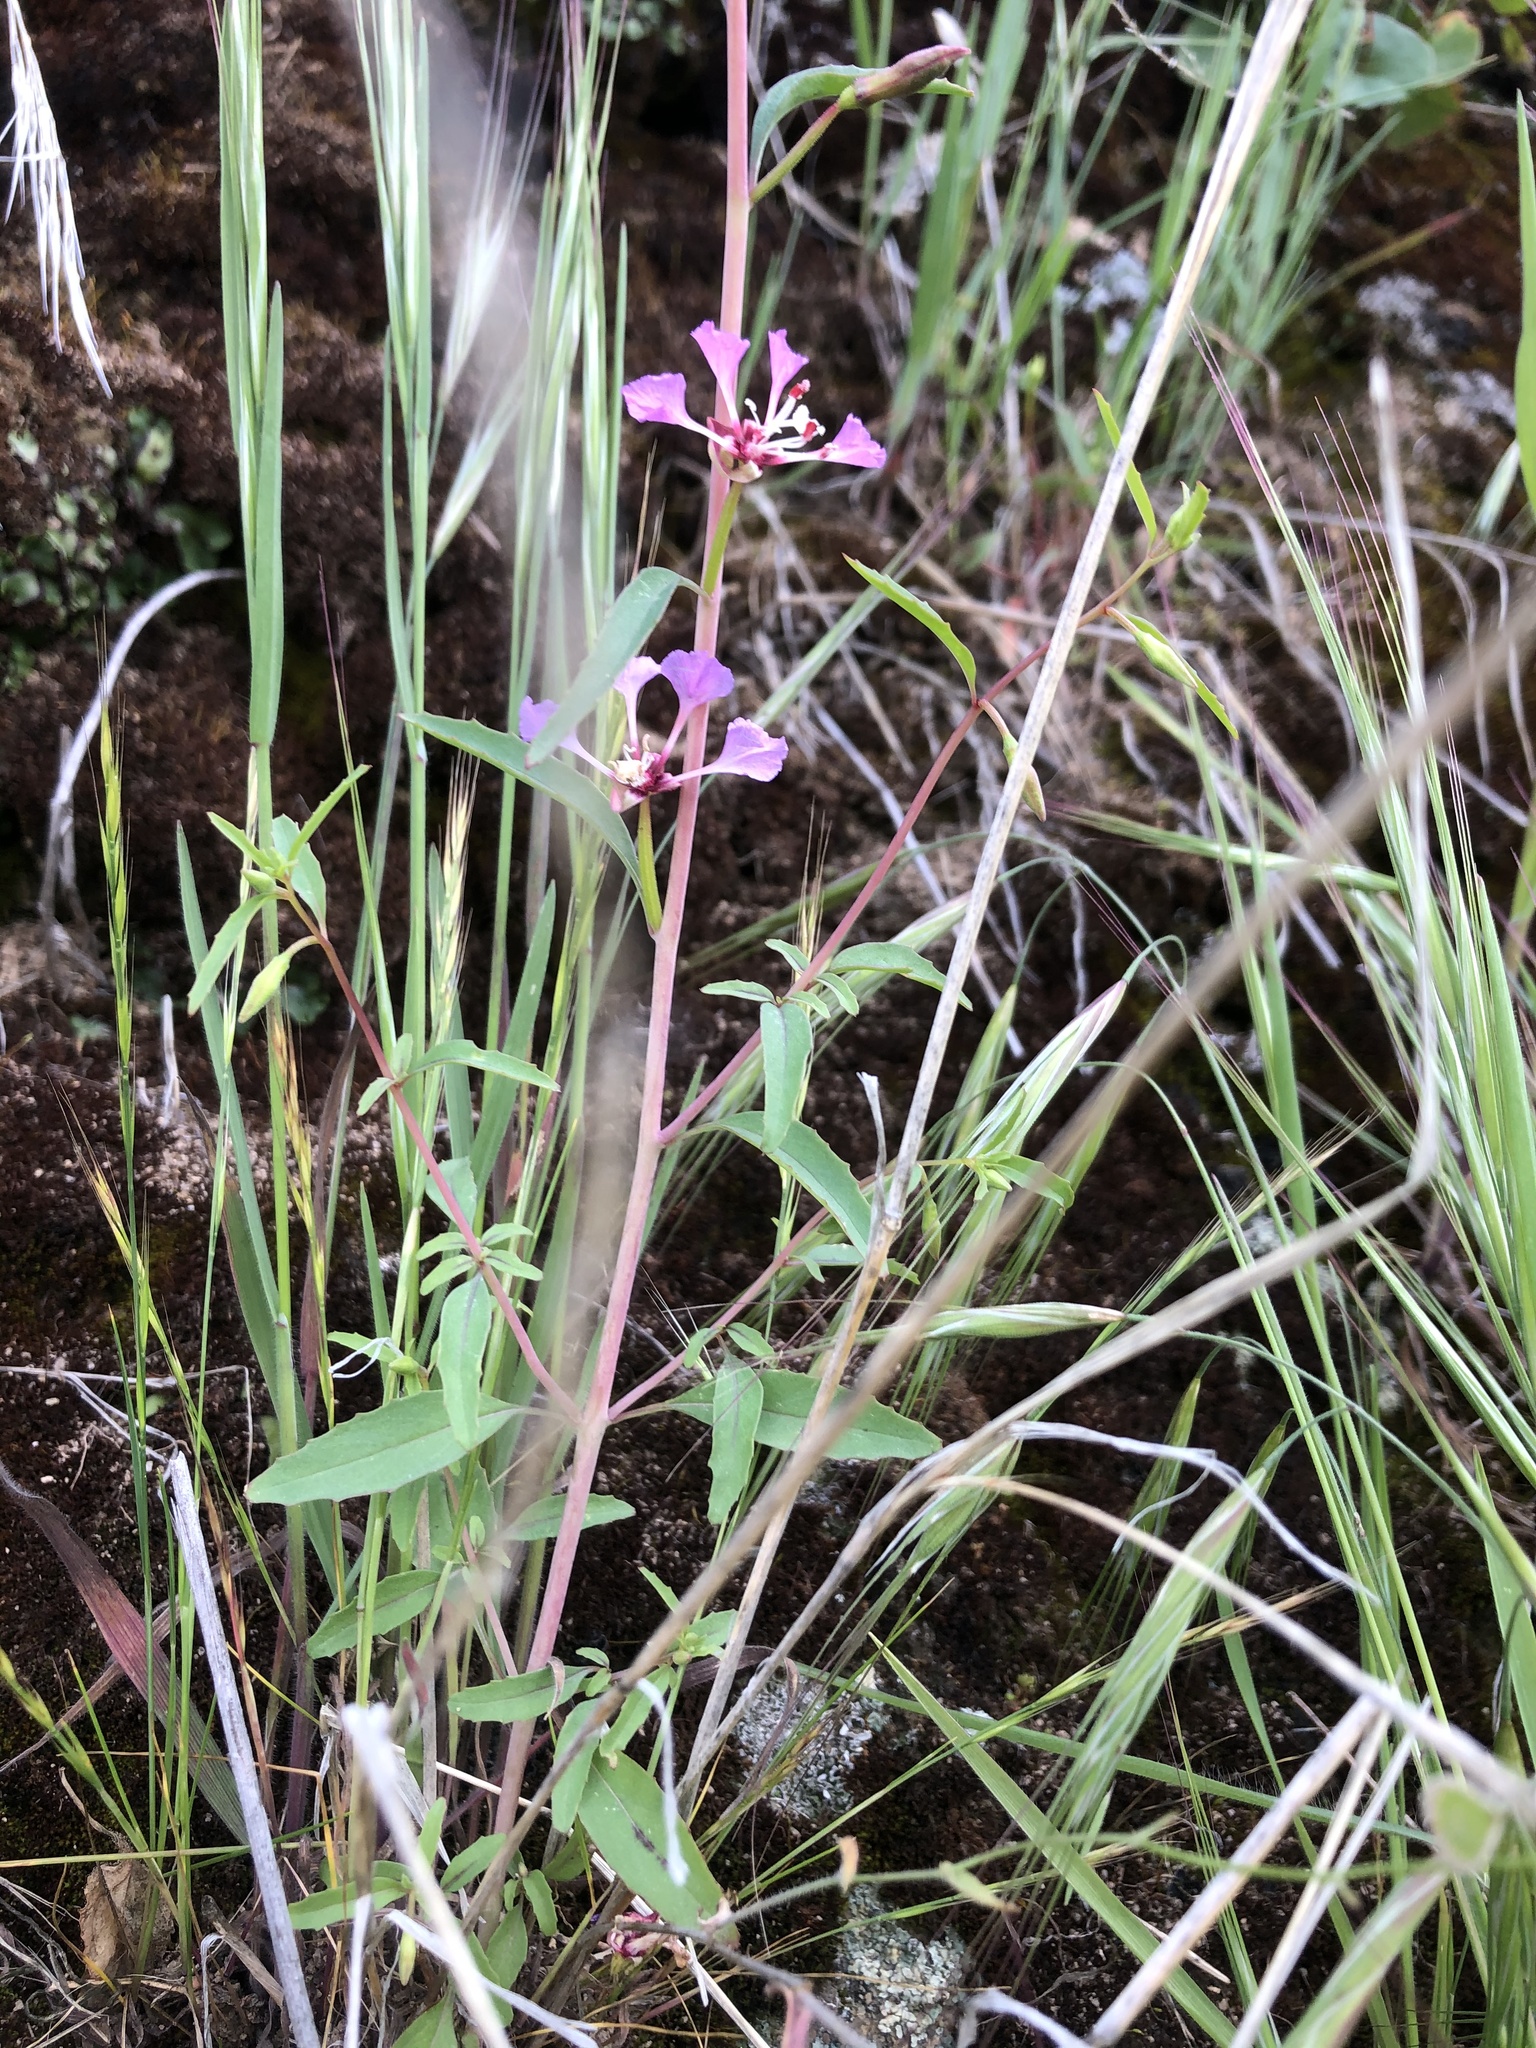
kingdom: Plantae
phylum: Tracheophyta
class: Magnoliopsida
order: Myrtales
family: Onagraceae
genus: Clarkia
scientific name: Clarkia unguiculata
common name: Clarkia
